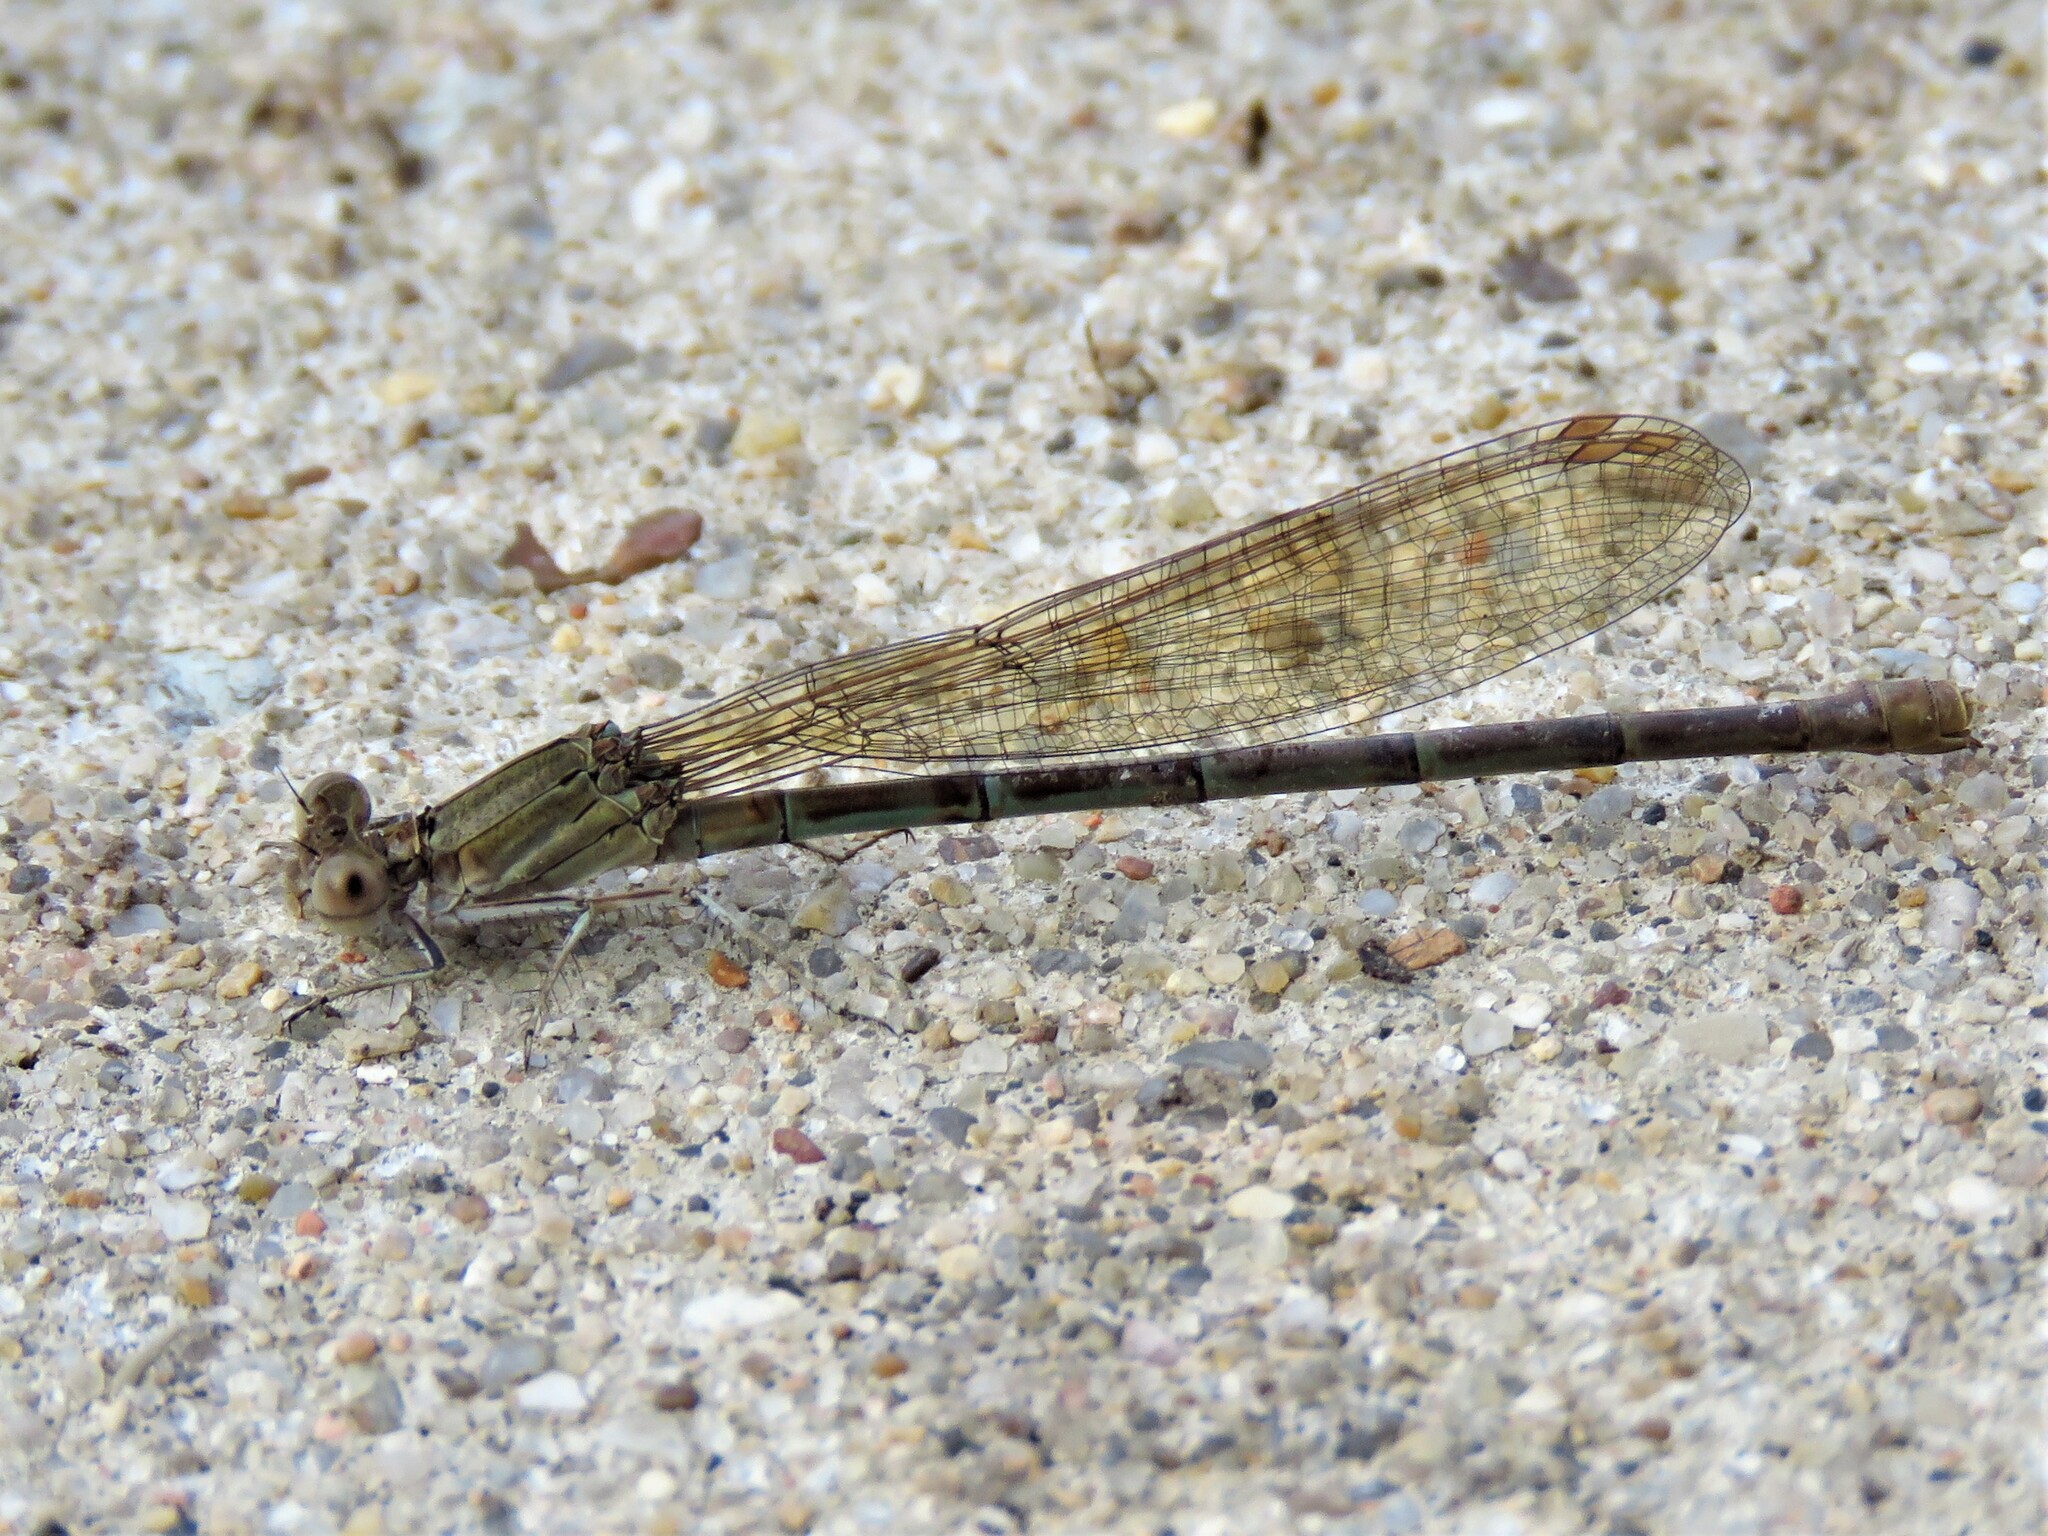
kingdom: Animalia
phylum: Arthropoda
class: Insecta
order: Odonata
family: Coenagrionidae
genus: Argia
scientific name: Argia sedula
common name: Blue-ringed dancer
